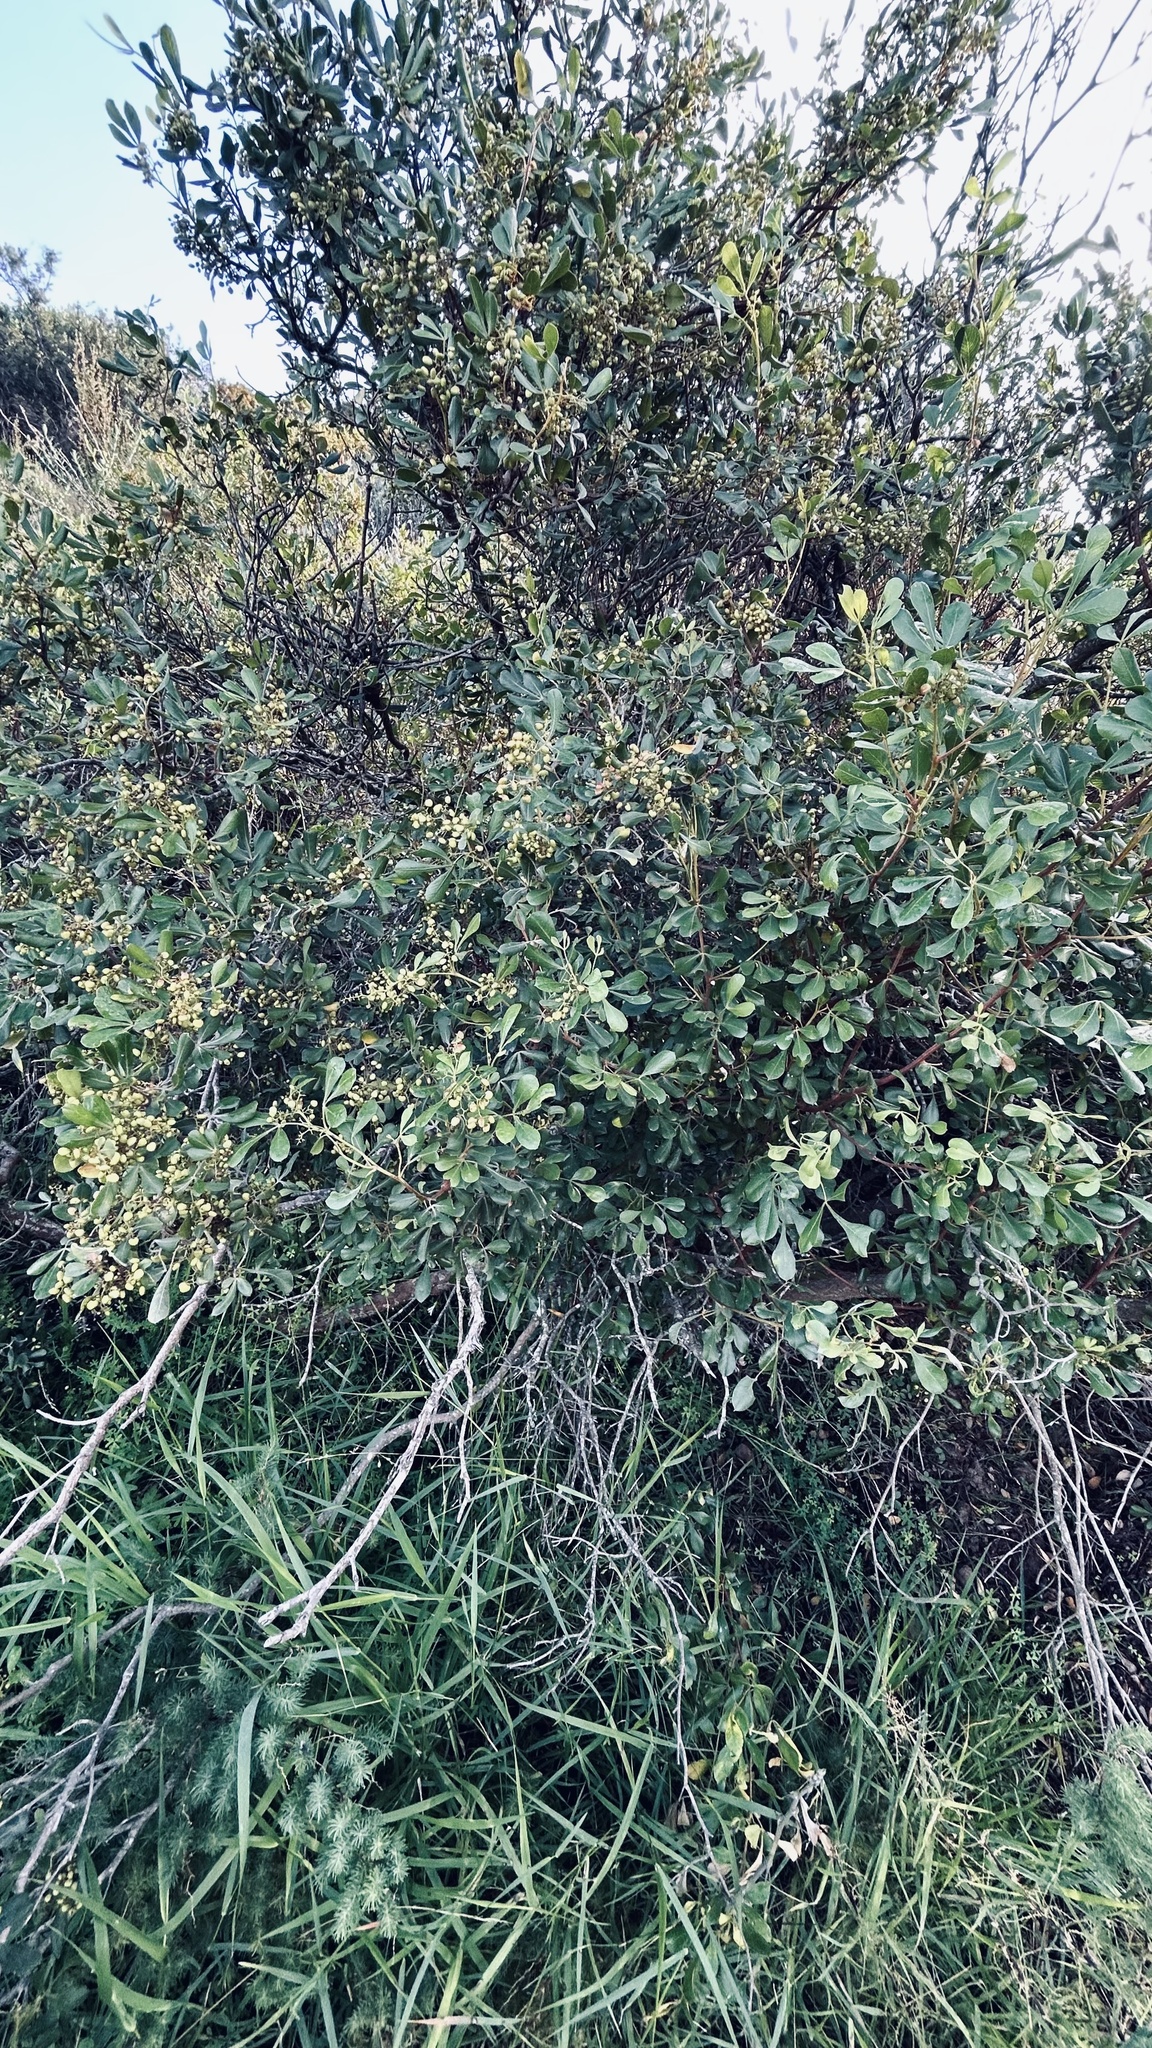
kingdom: Plantae
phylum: Tracheophyta
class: Magnoliopsida
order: Sapindales
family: Anacardiaceae
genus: Searsia
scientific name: Searsia pallens
